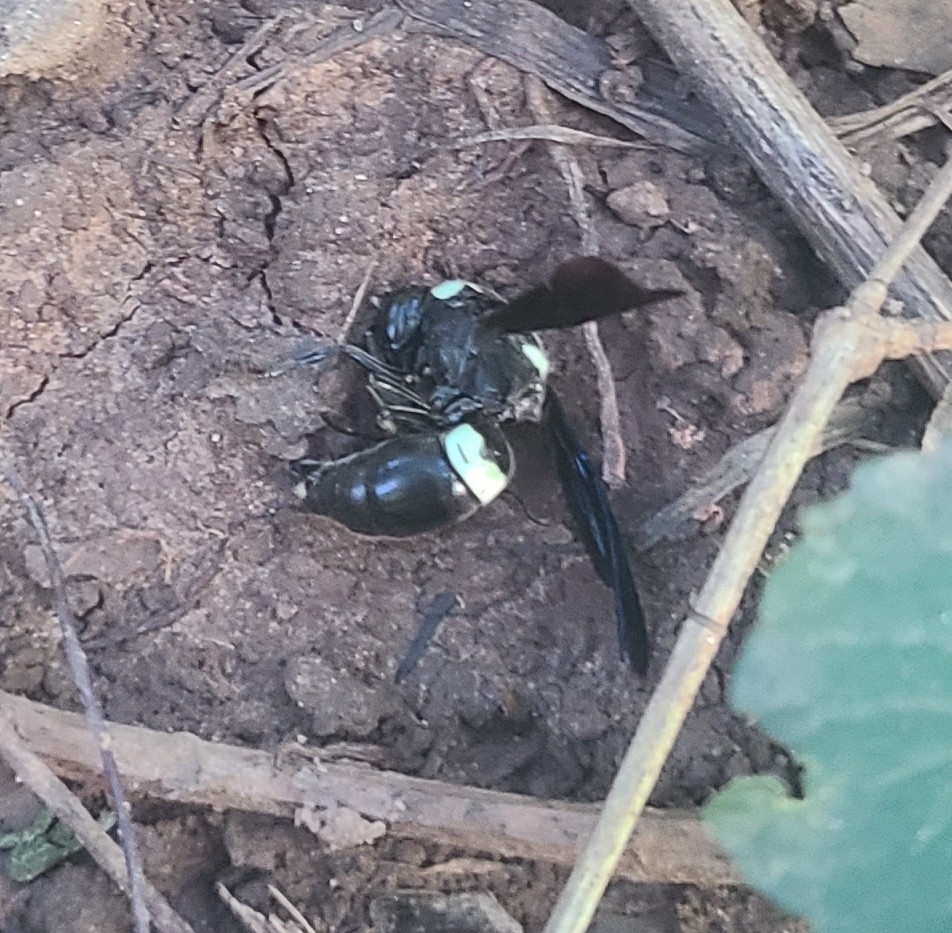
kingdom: Animalia
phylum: Arthropoda
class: Insecta
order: Hymenoptera
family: Eumenidae
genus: Monobia
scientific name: Monobia quadridens
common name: Four-toothed mason wasp
